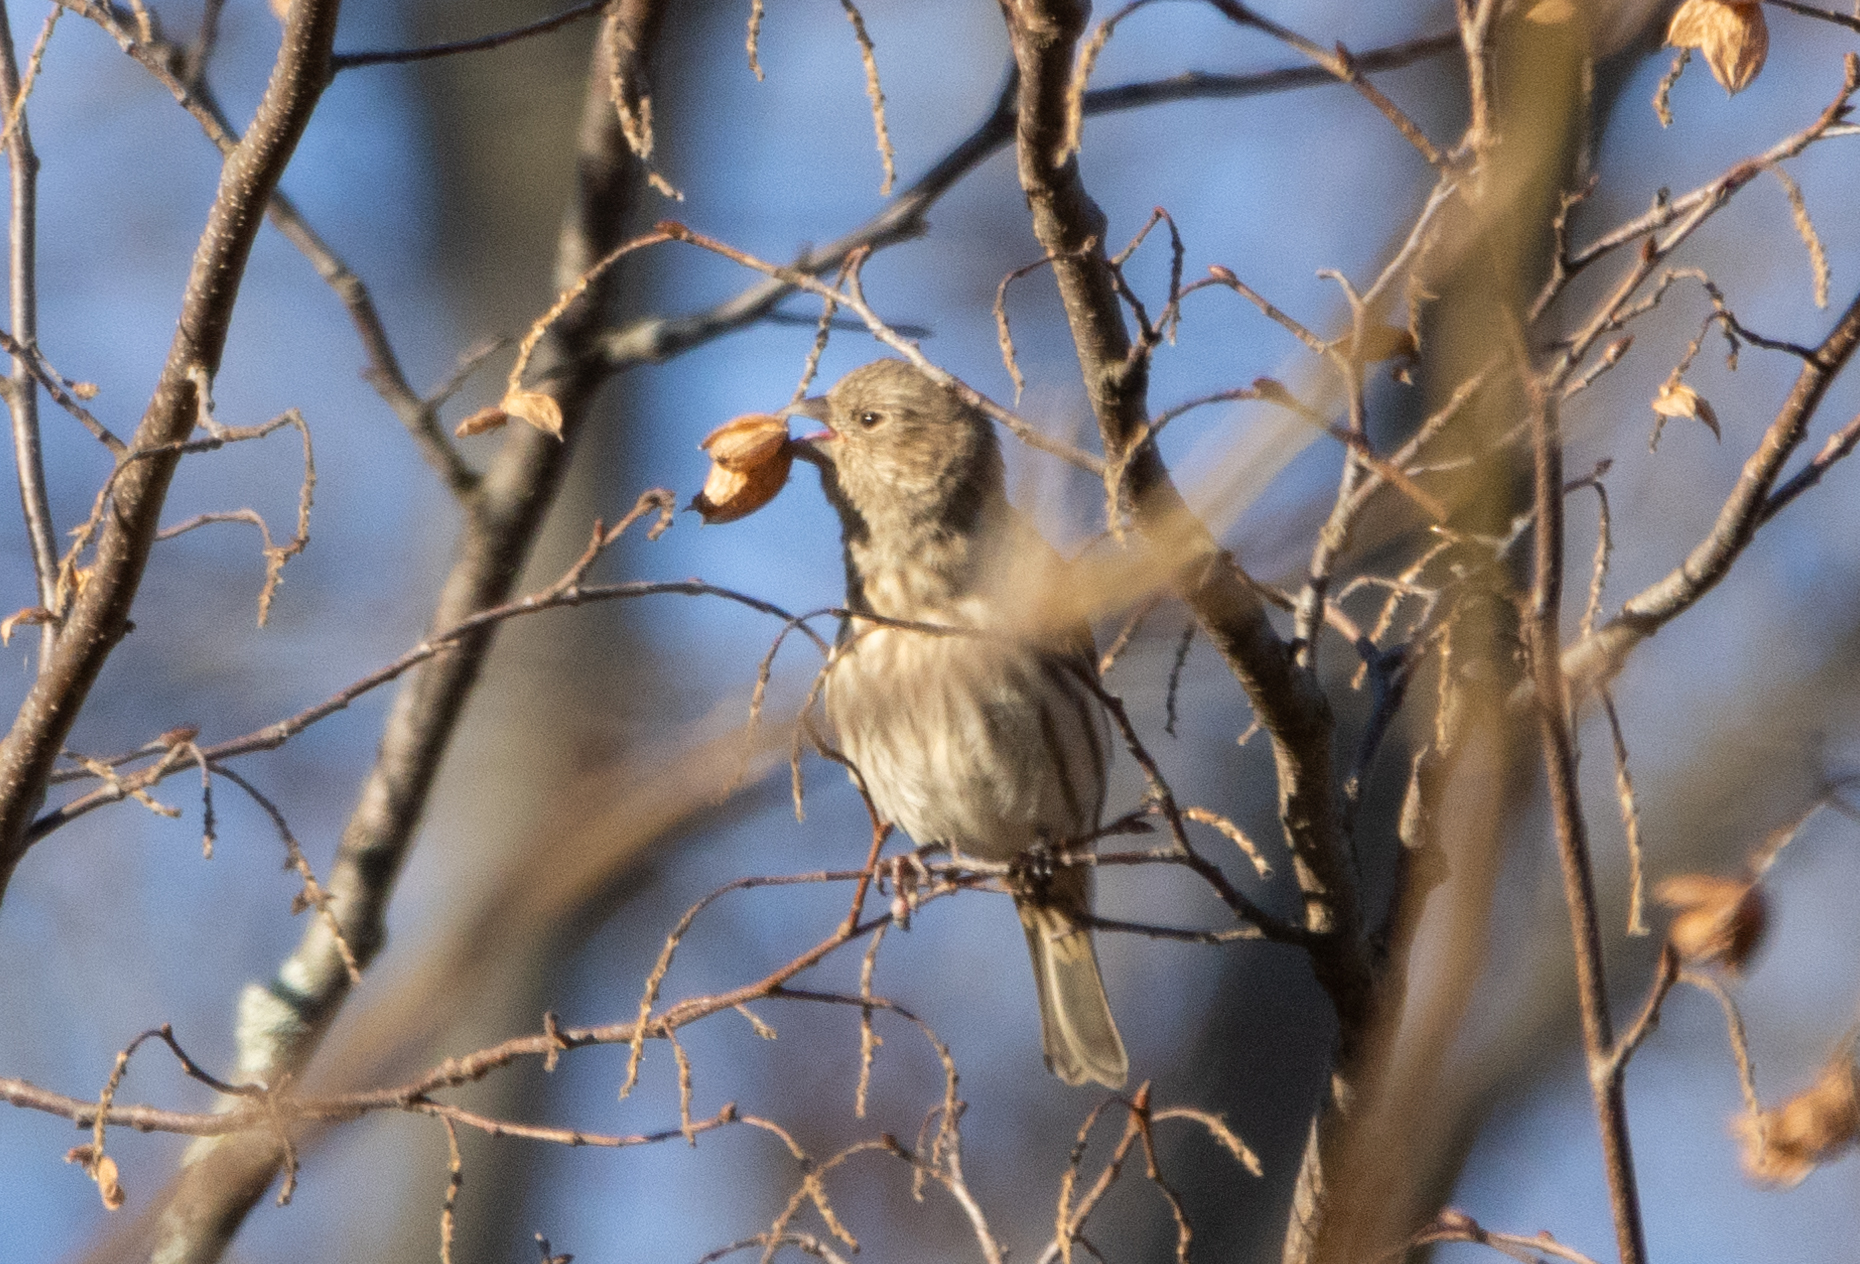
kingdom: Animalia
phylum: Chordata
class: Aves
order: Passeriformes
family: Fringillidae
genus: Haemorhous
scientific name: Haemorhous mexicanus
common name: House finch
